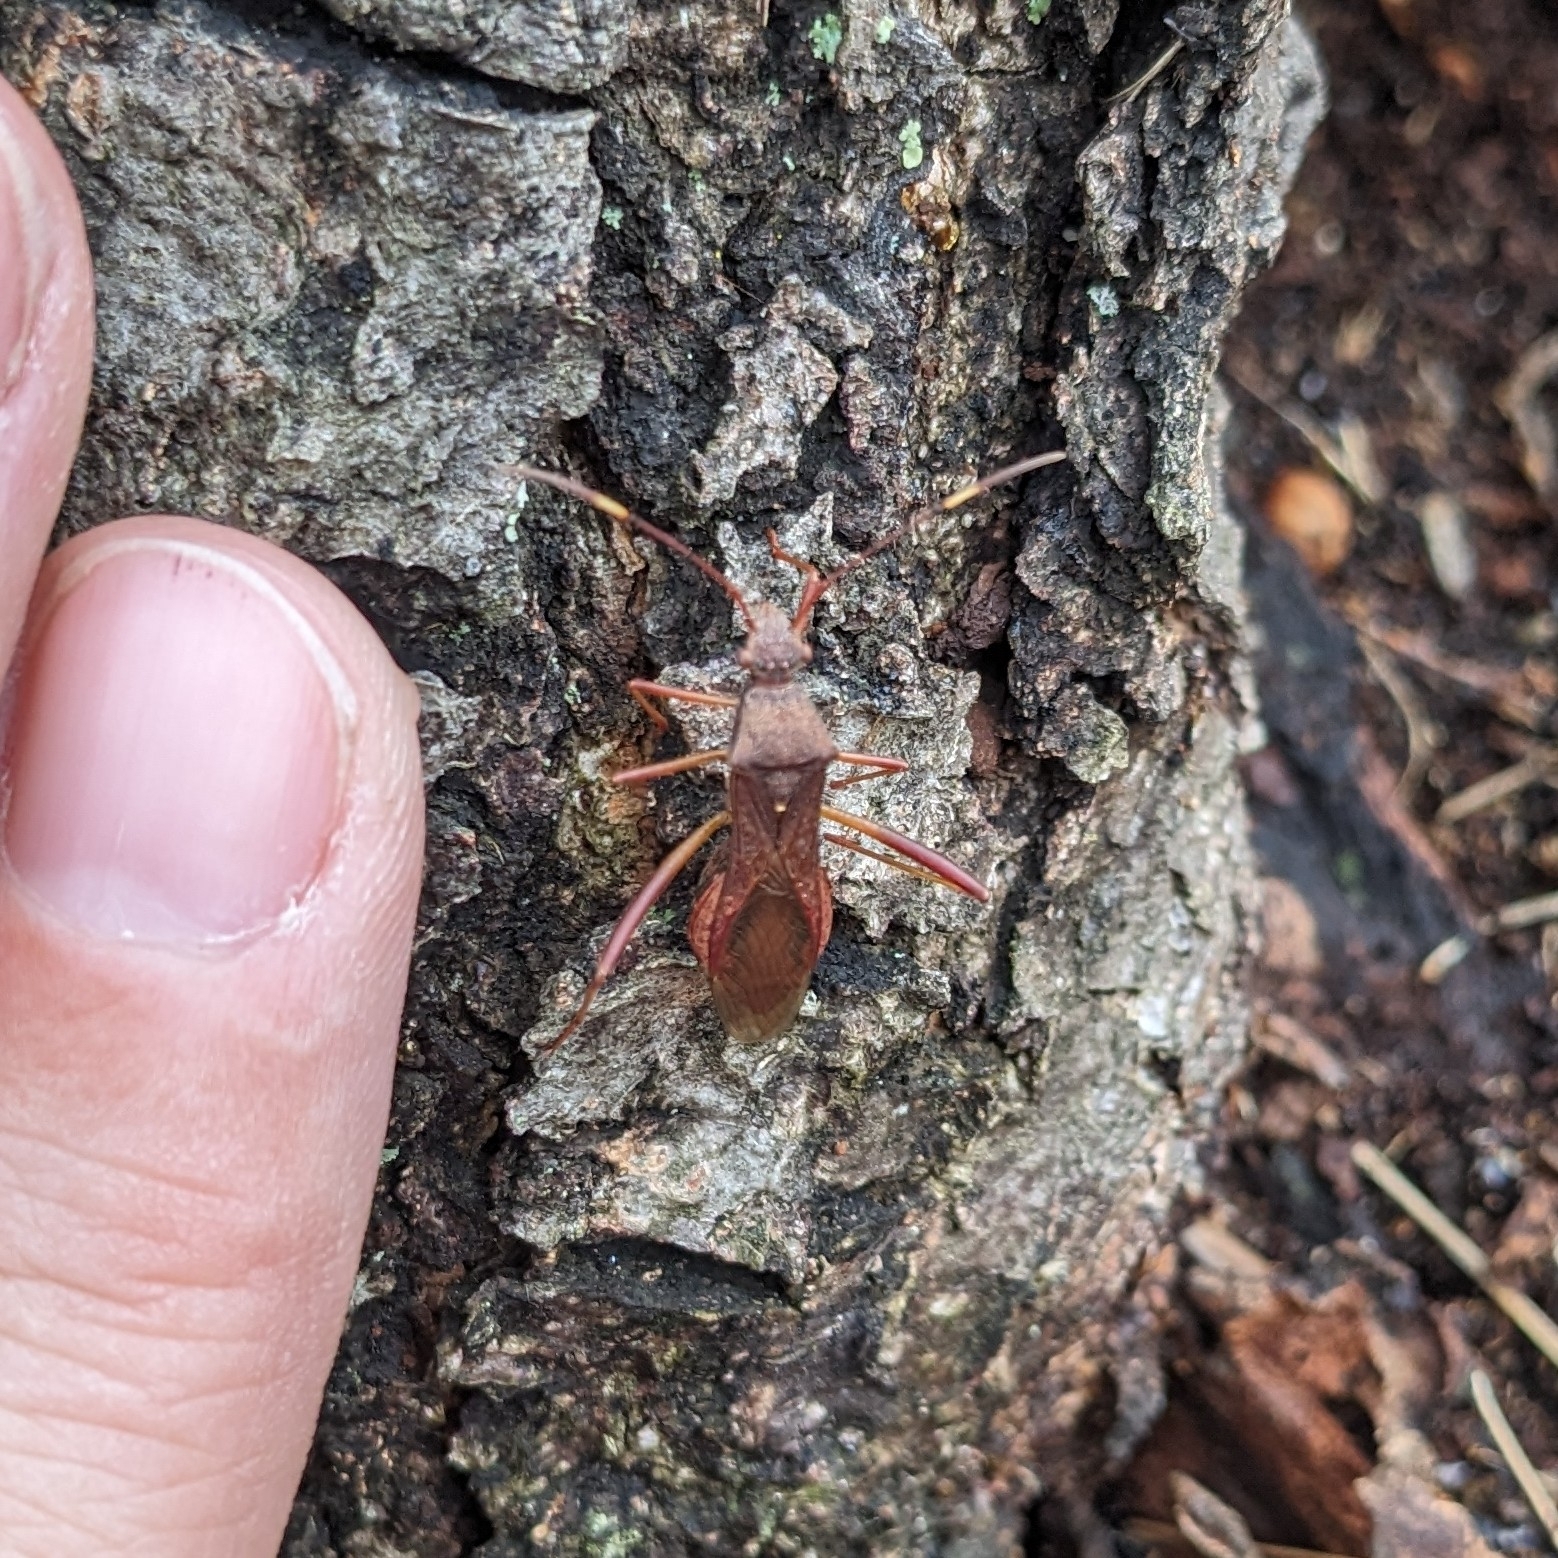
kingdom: Animalia
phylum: Arthropoda
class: Insecta
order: Hemiptera
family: Alydidae
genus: Megalotomus
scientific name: Megalotomus quinquespinosus
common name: Lupine bug
